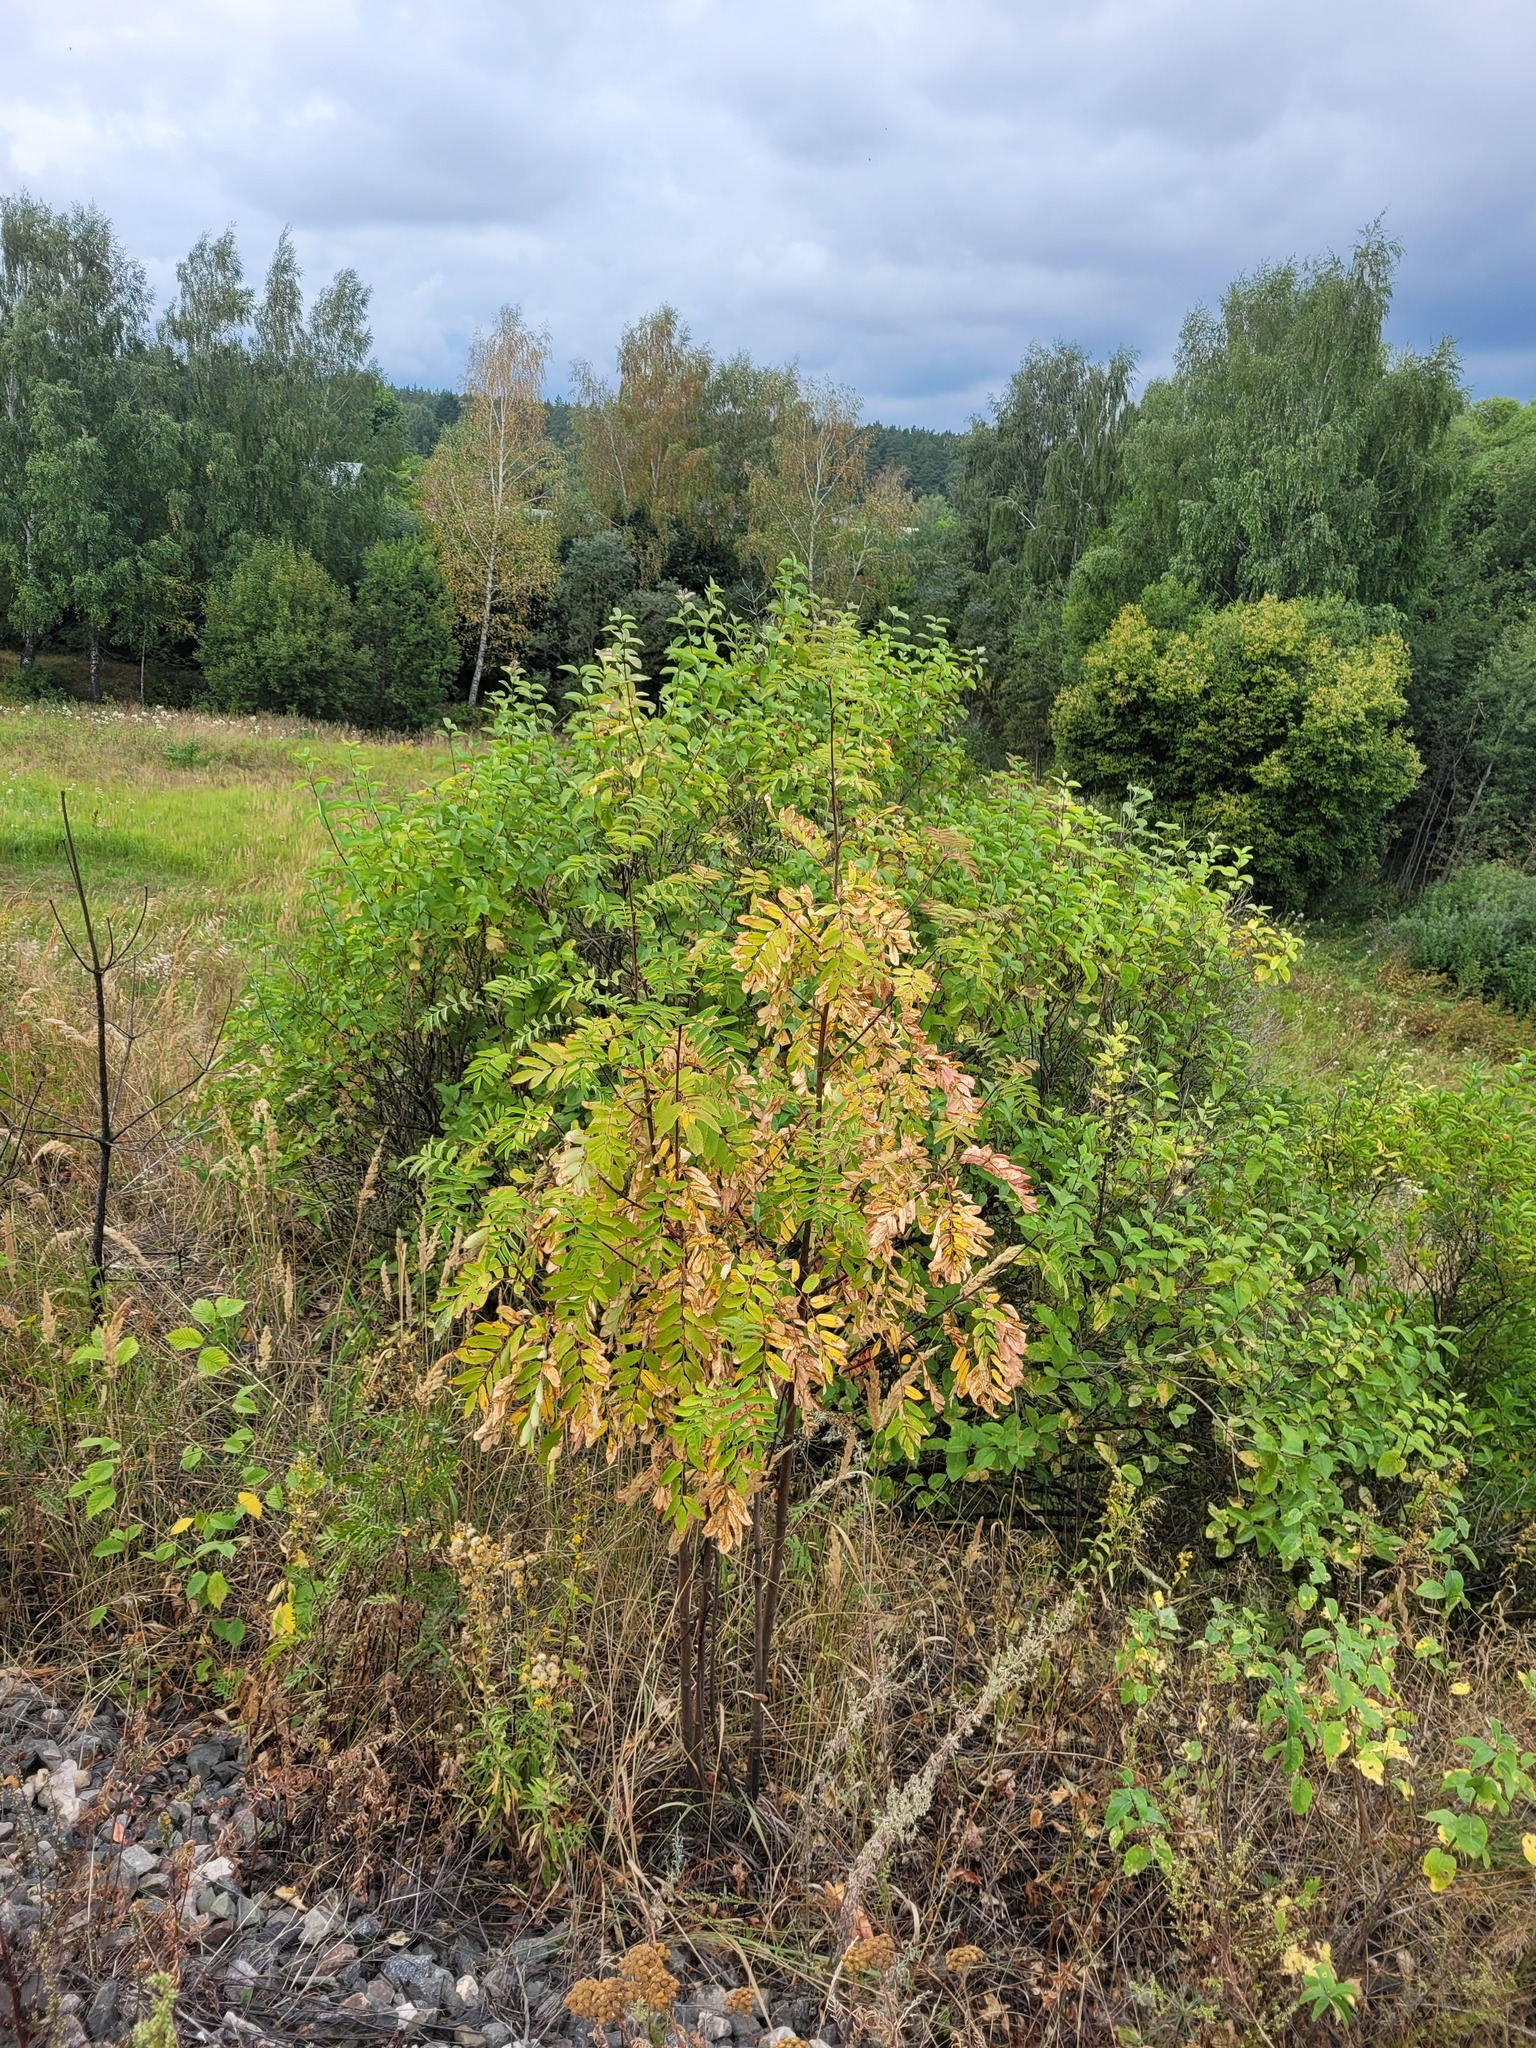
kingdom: Plantae
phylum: Tracheophyta
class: Magnoliopsida
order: Rosales
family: Rosaceae
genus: Sorbus
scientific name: Sorbus aucuparia
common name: Rowan
